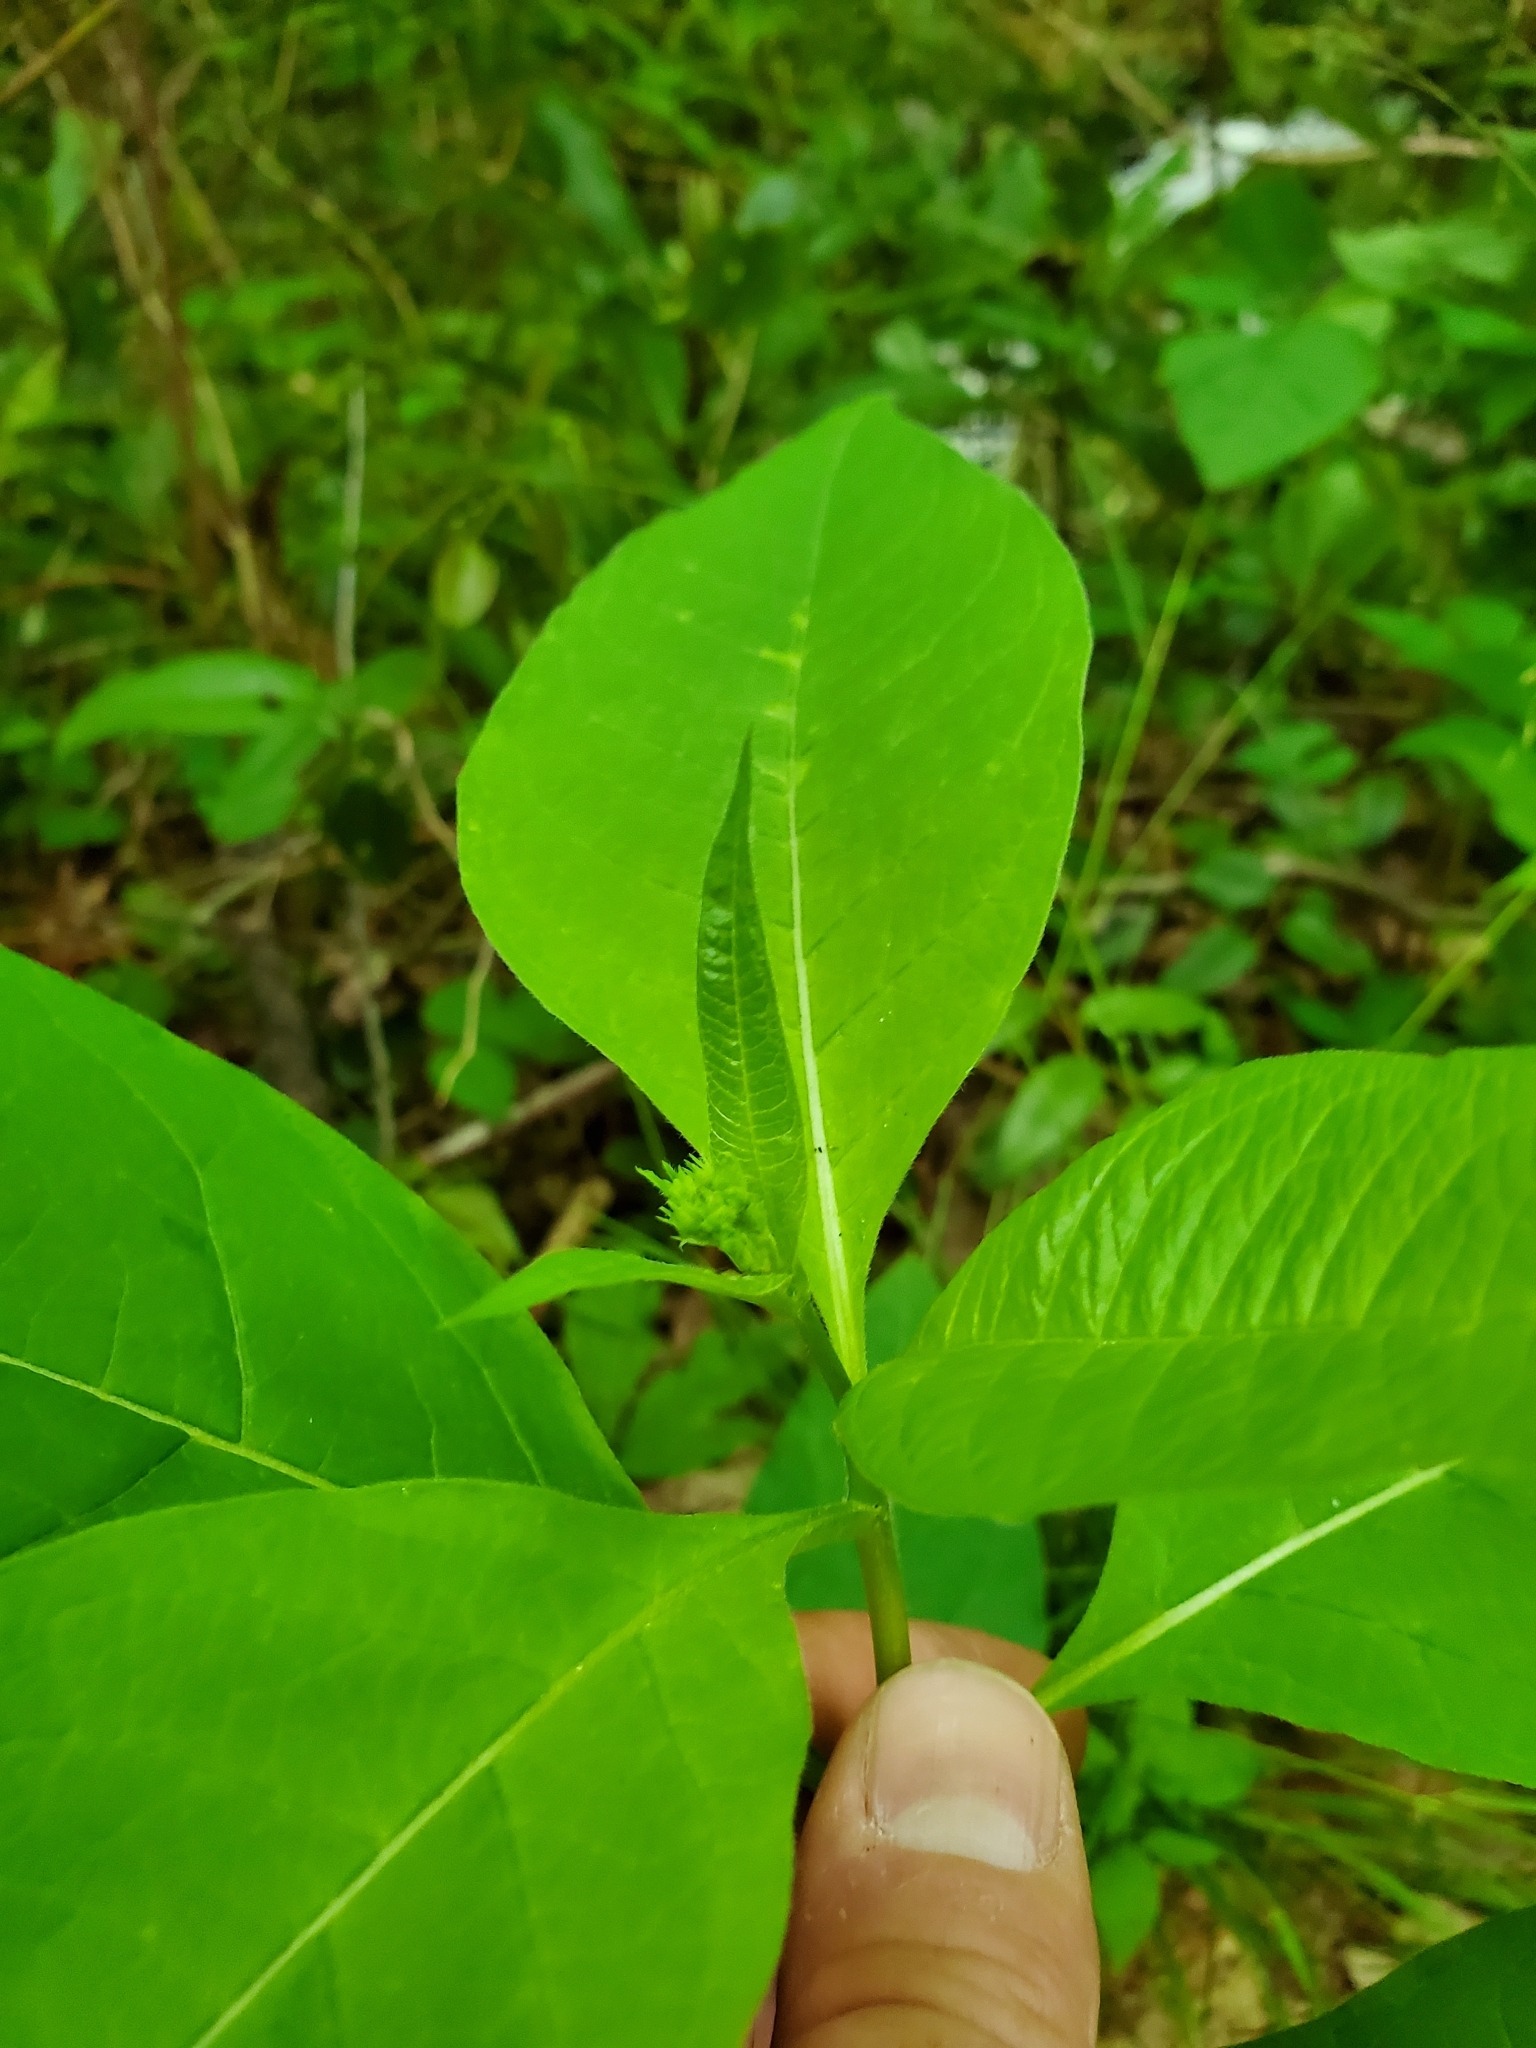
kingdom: Plantae
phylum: Tracheophyta
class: Magnoliopsida
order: Gentianales
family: Apocynaceae
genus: Asclepias
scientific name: Asclepias exaltata
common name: Poke milkweed
